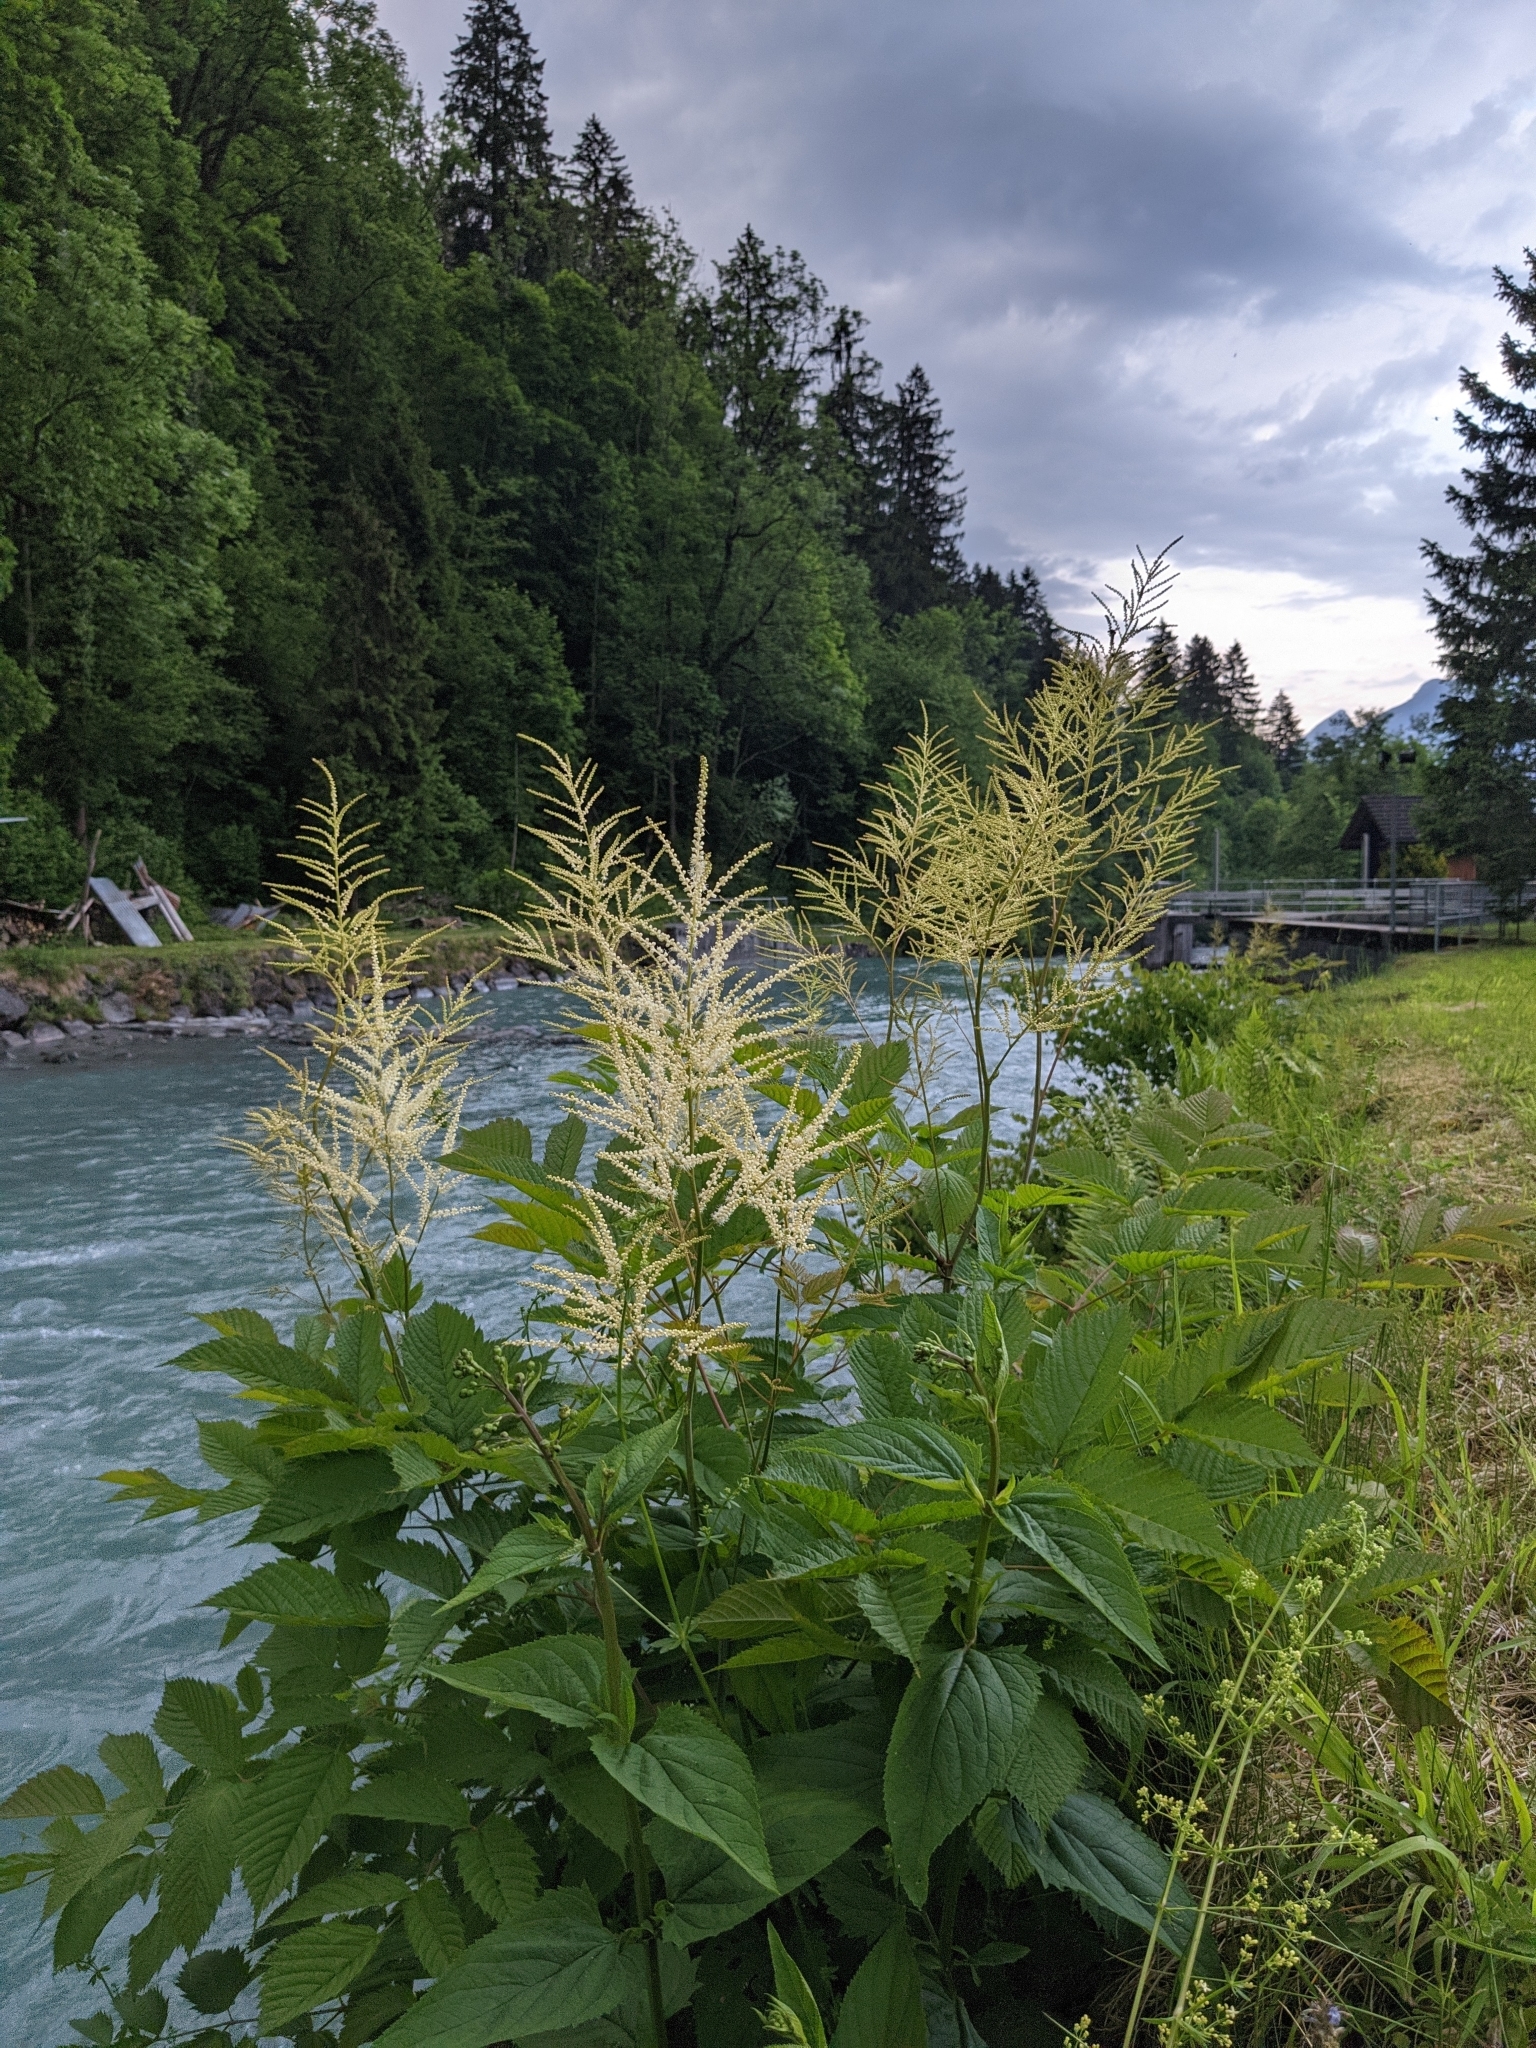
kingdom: Plantae
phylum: Tracheophyta
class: Magnoliopsida
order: Rosales
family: Rosaceae
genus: Aruncus
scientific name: Aruncus dioicus
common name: Buck's-beard
